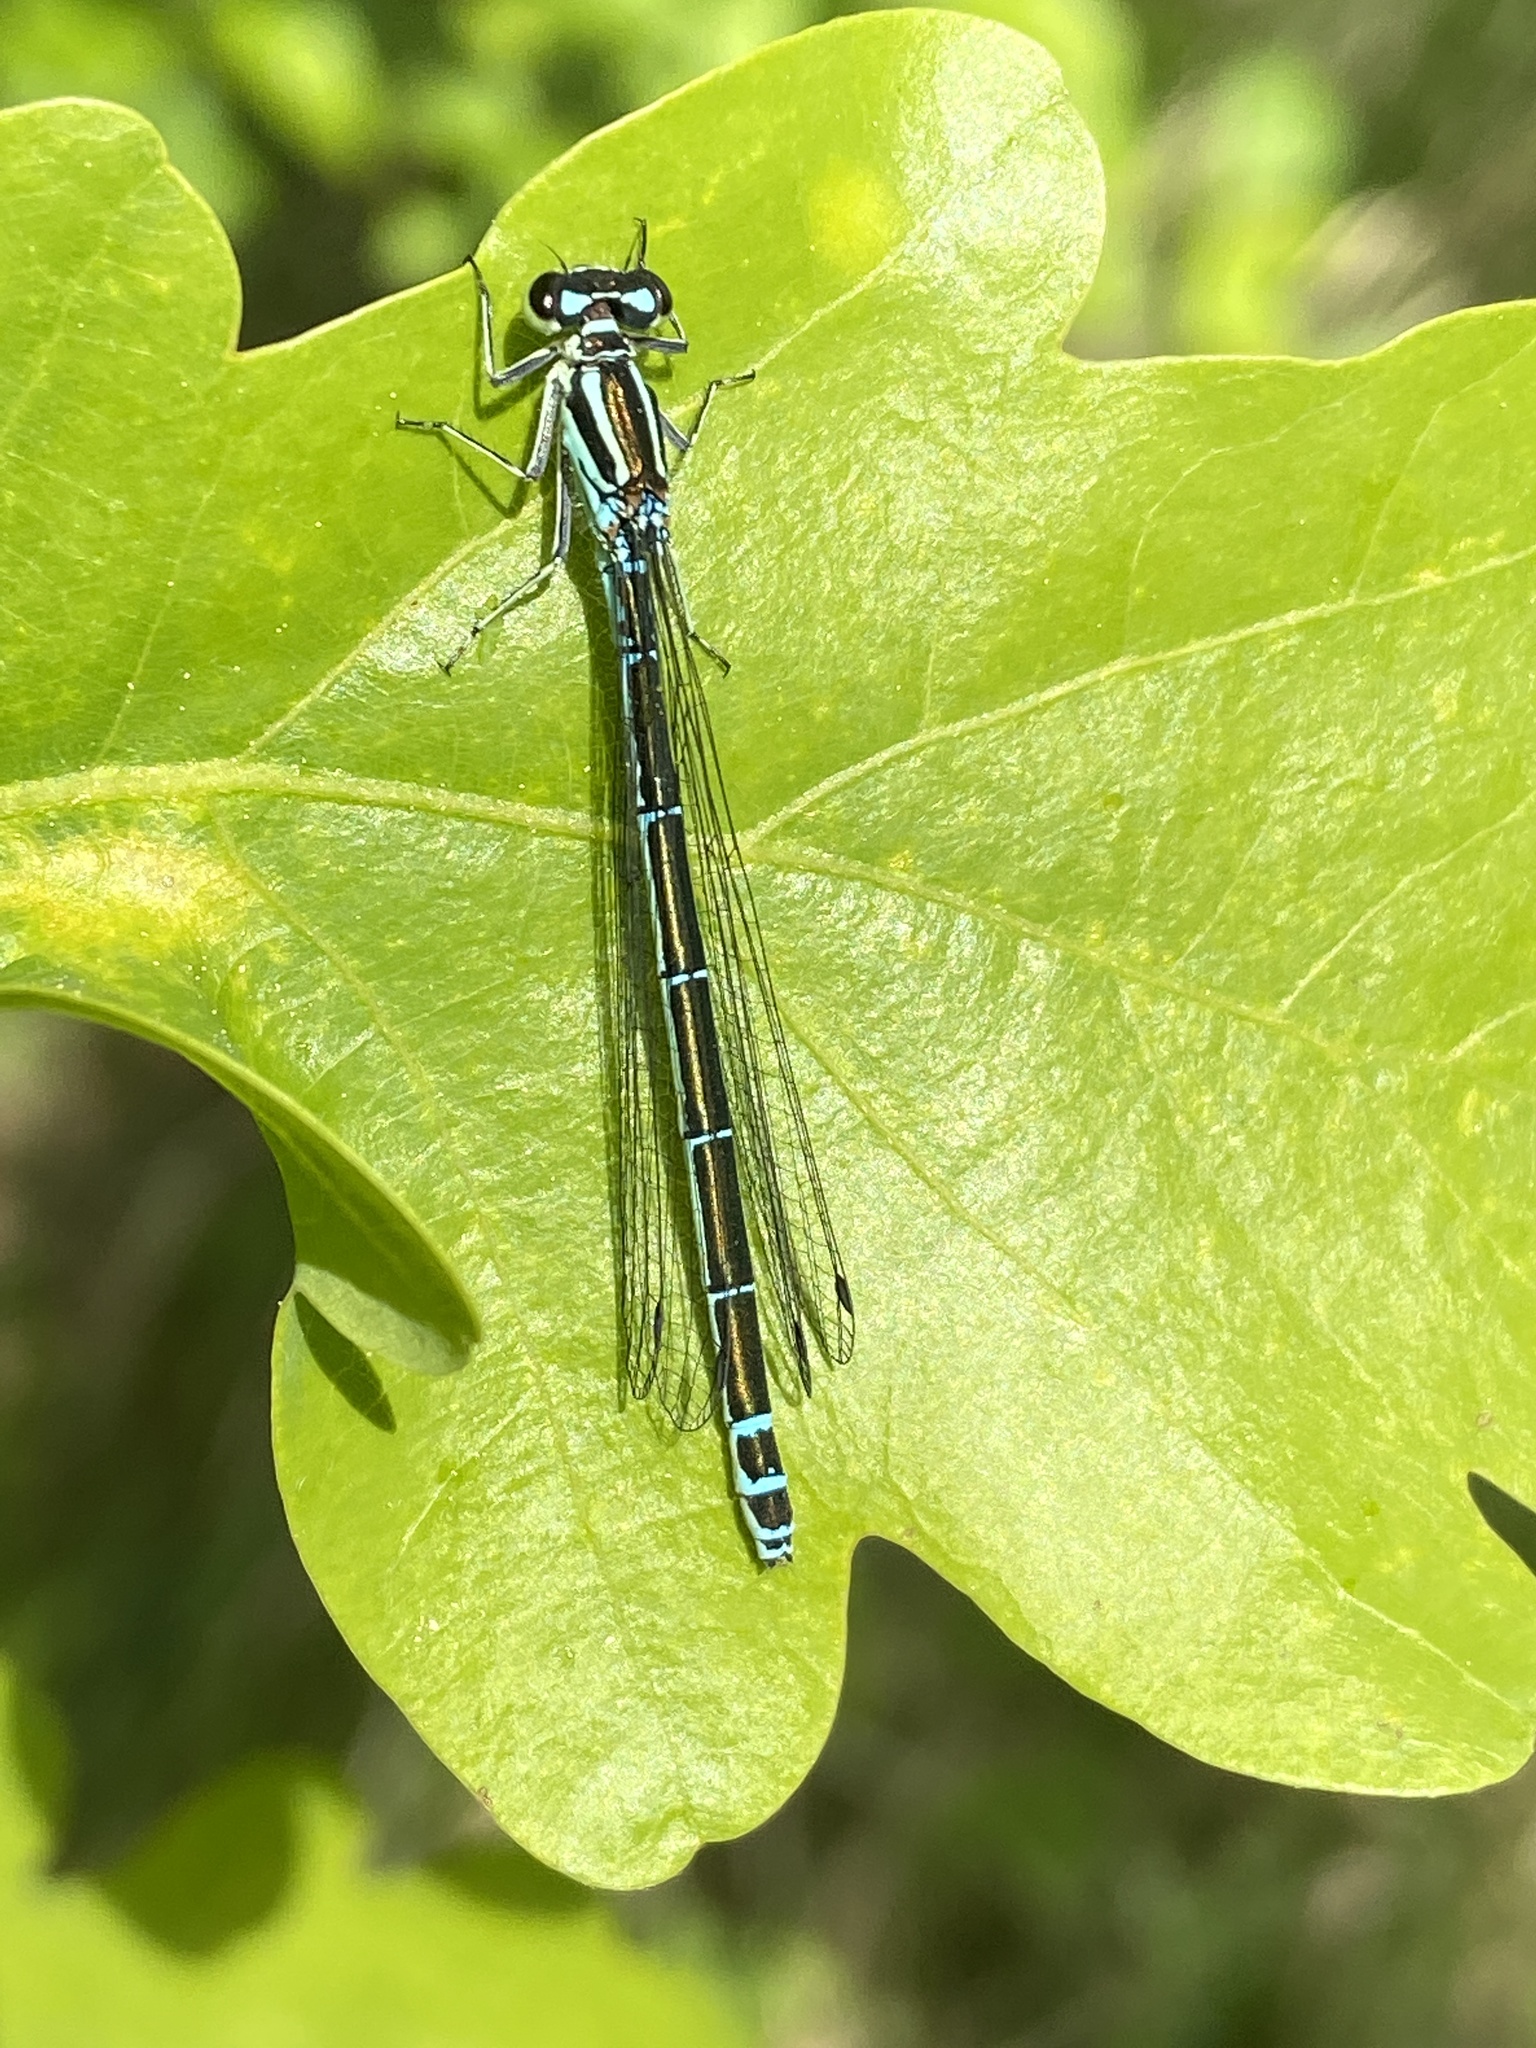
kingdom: Animalia
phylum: Arthropoda
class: Insecta
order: Odonata
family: Coenagrionidae
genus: Coenagrion
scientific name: Coenagrion puella
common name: Azure damselfly
